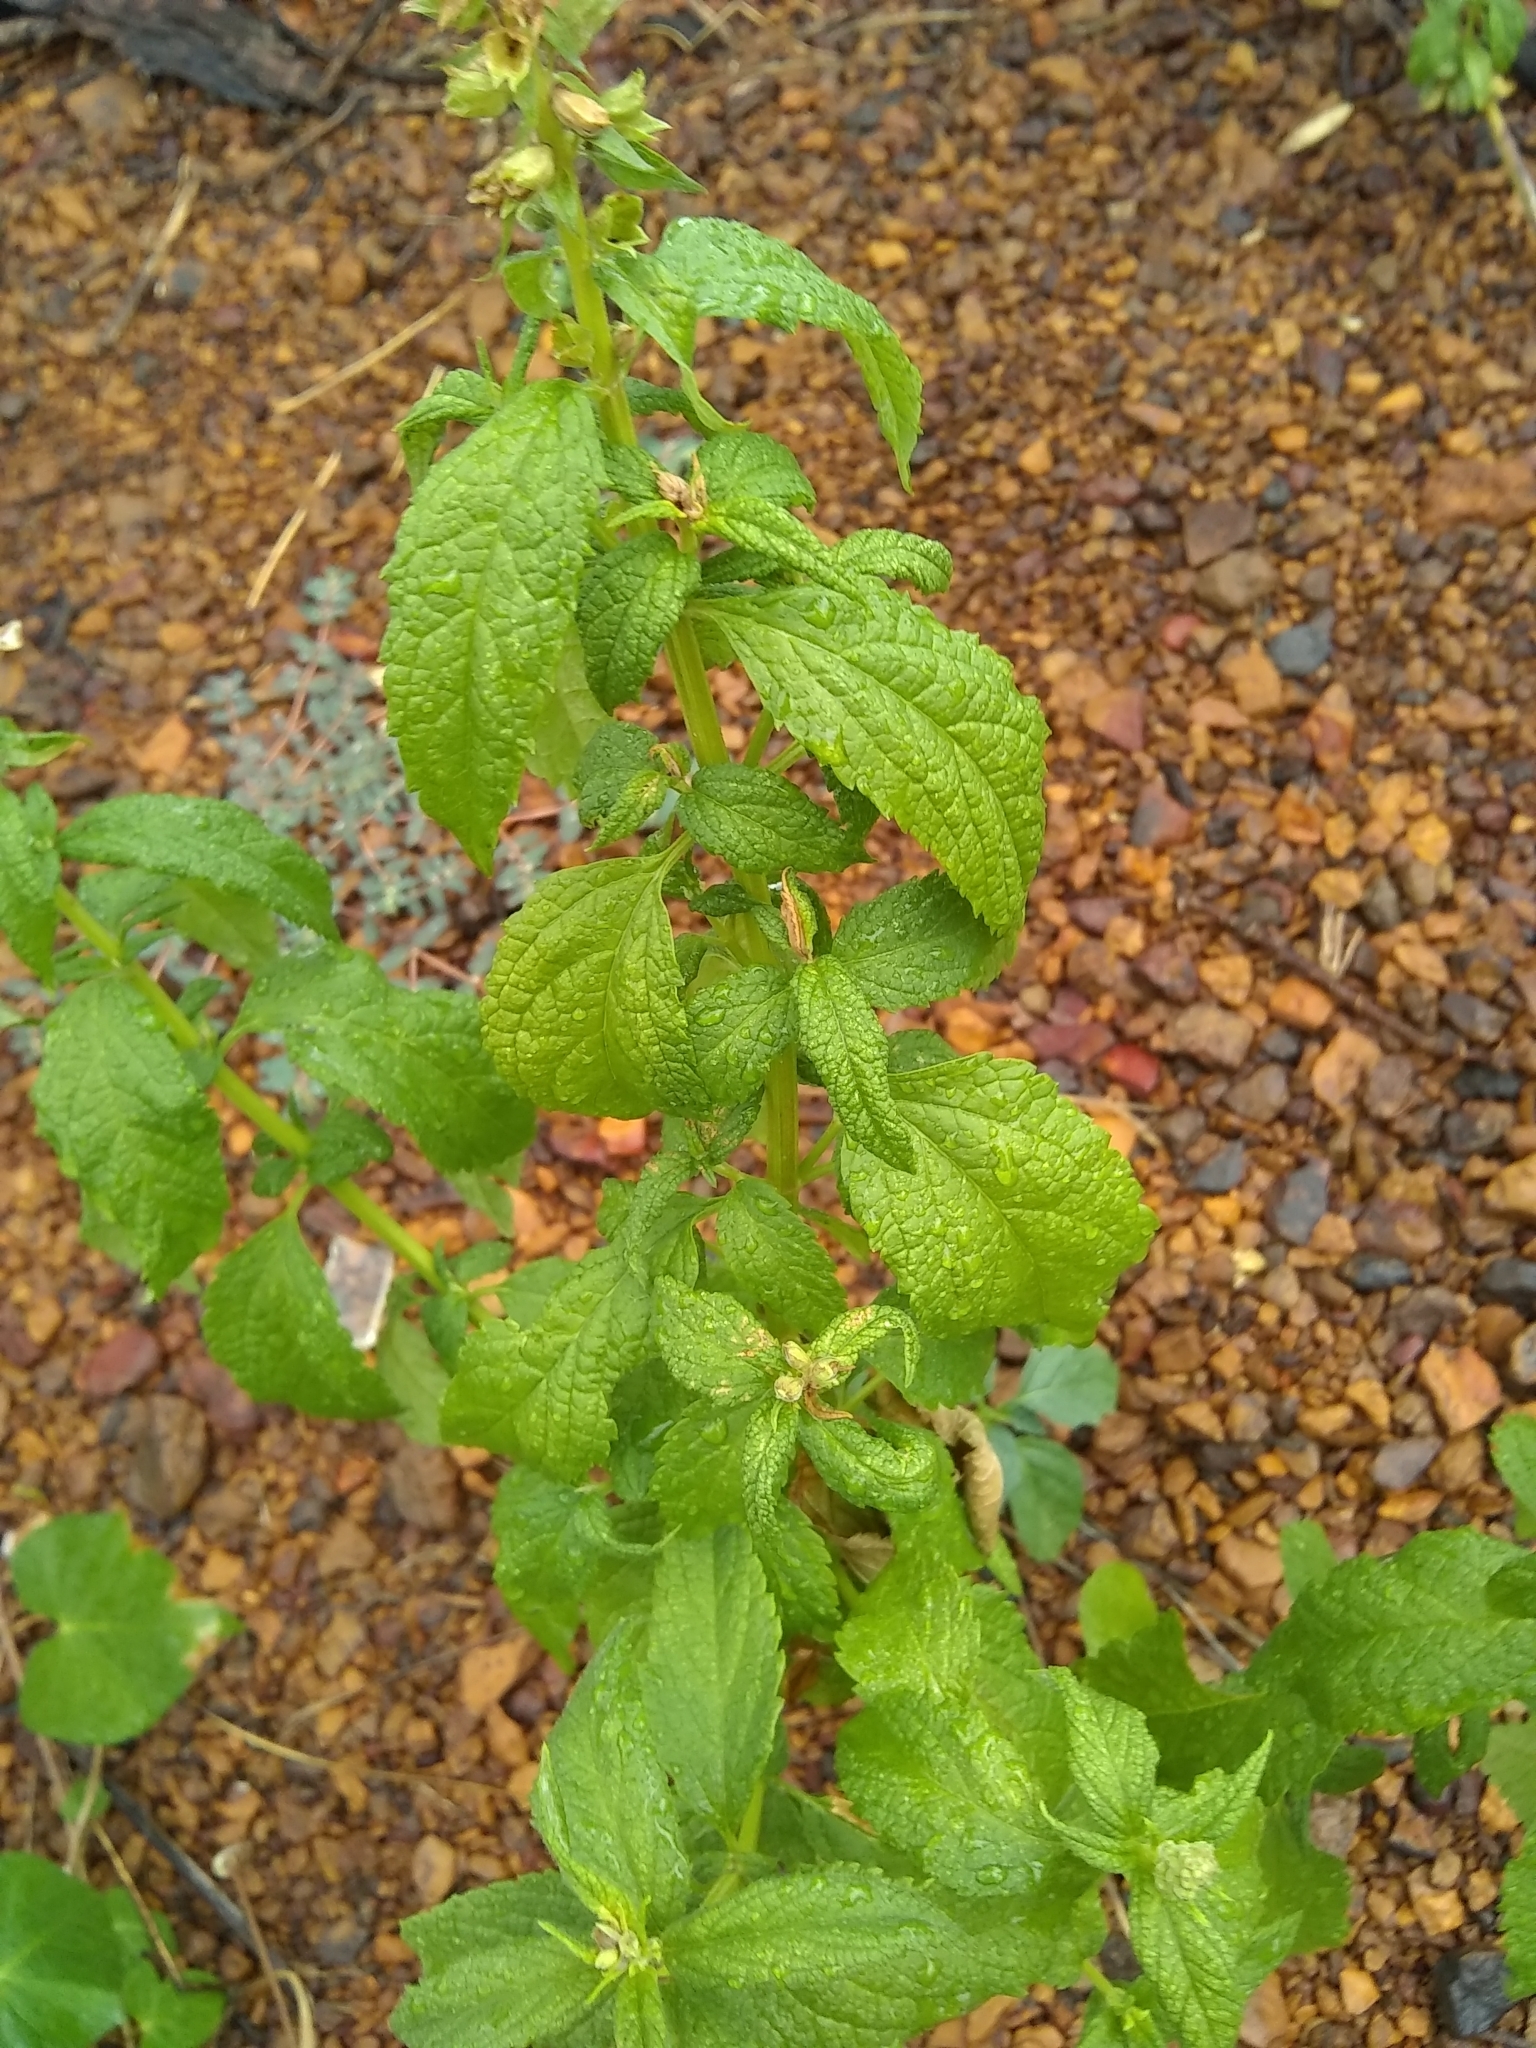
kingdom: Plantae
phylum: Tracheophyta
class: Magnoliopsida
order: Lamiales
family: Lamiaceae
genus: Teucrium
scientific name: Teucrium canadense
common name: American germander
